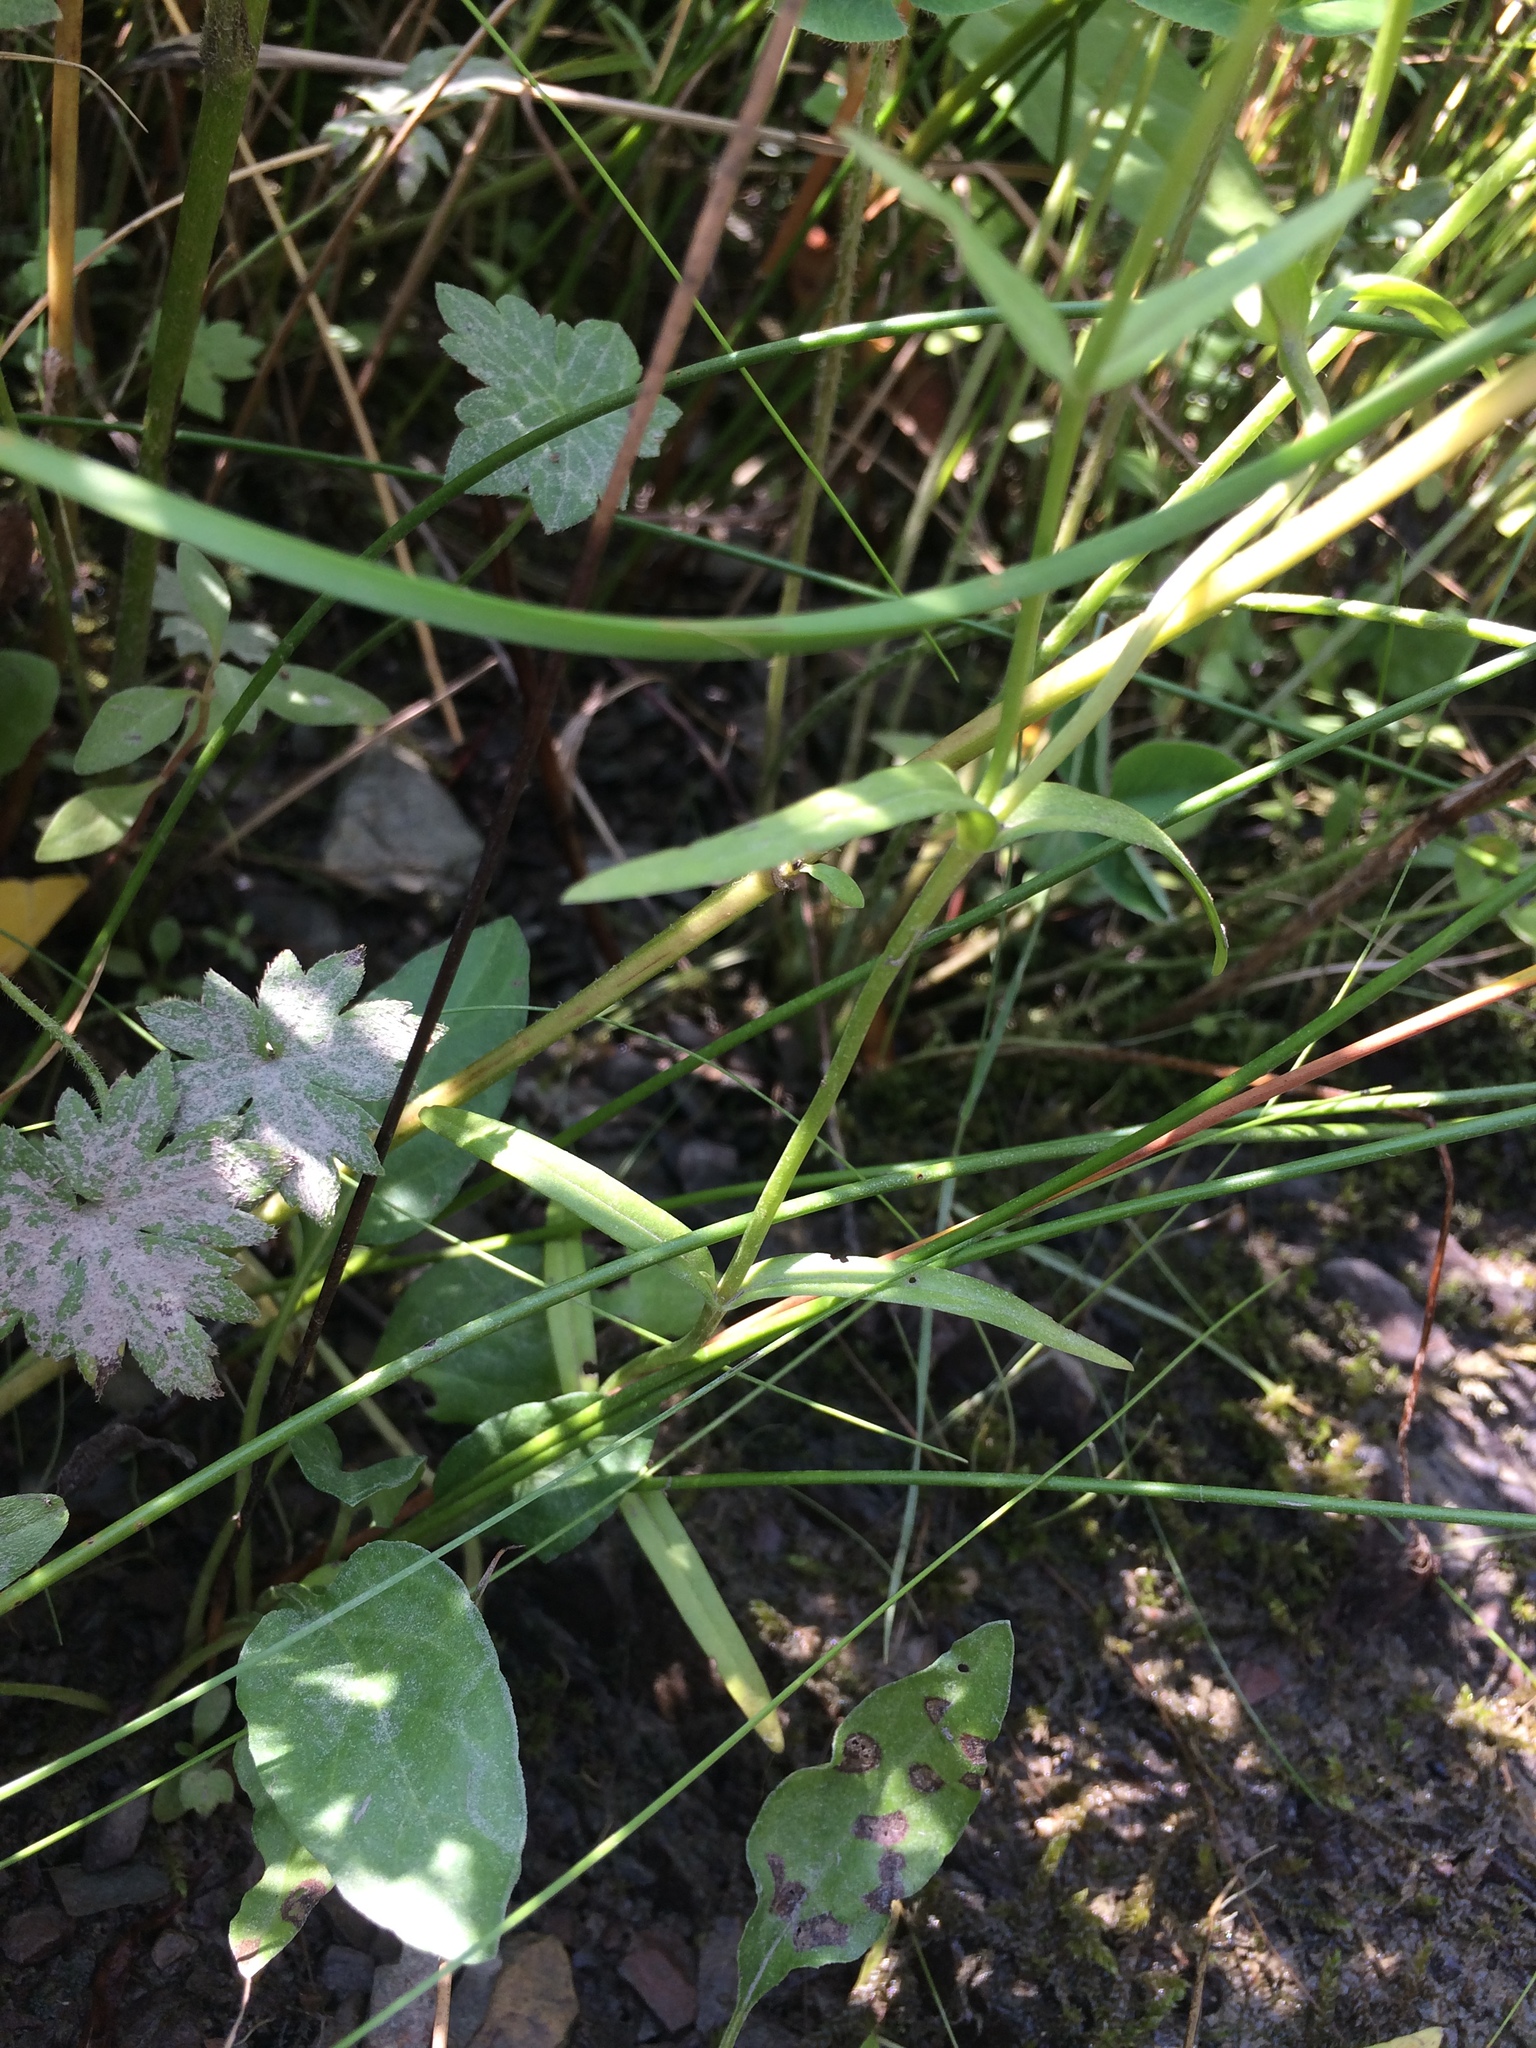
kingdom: Plantae
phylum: Tracheophyta
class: Magnoliopsida
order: Gentianales
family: Gentianaceae
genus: Gentianopsis
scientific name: Gentianopsis victorinii
